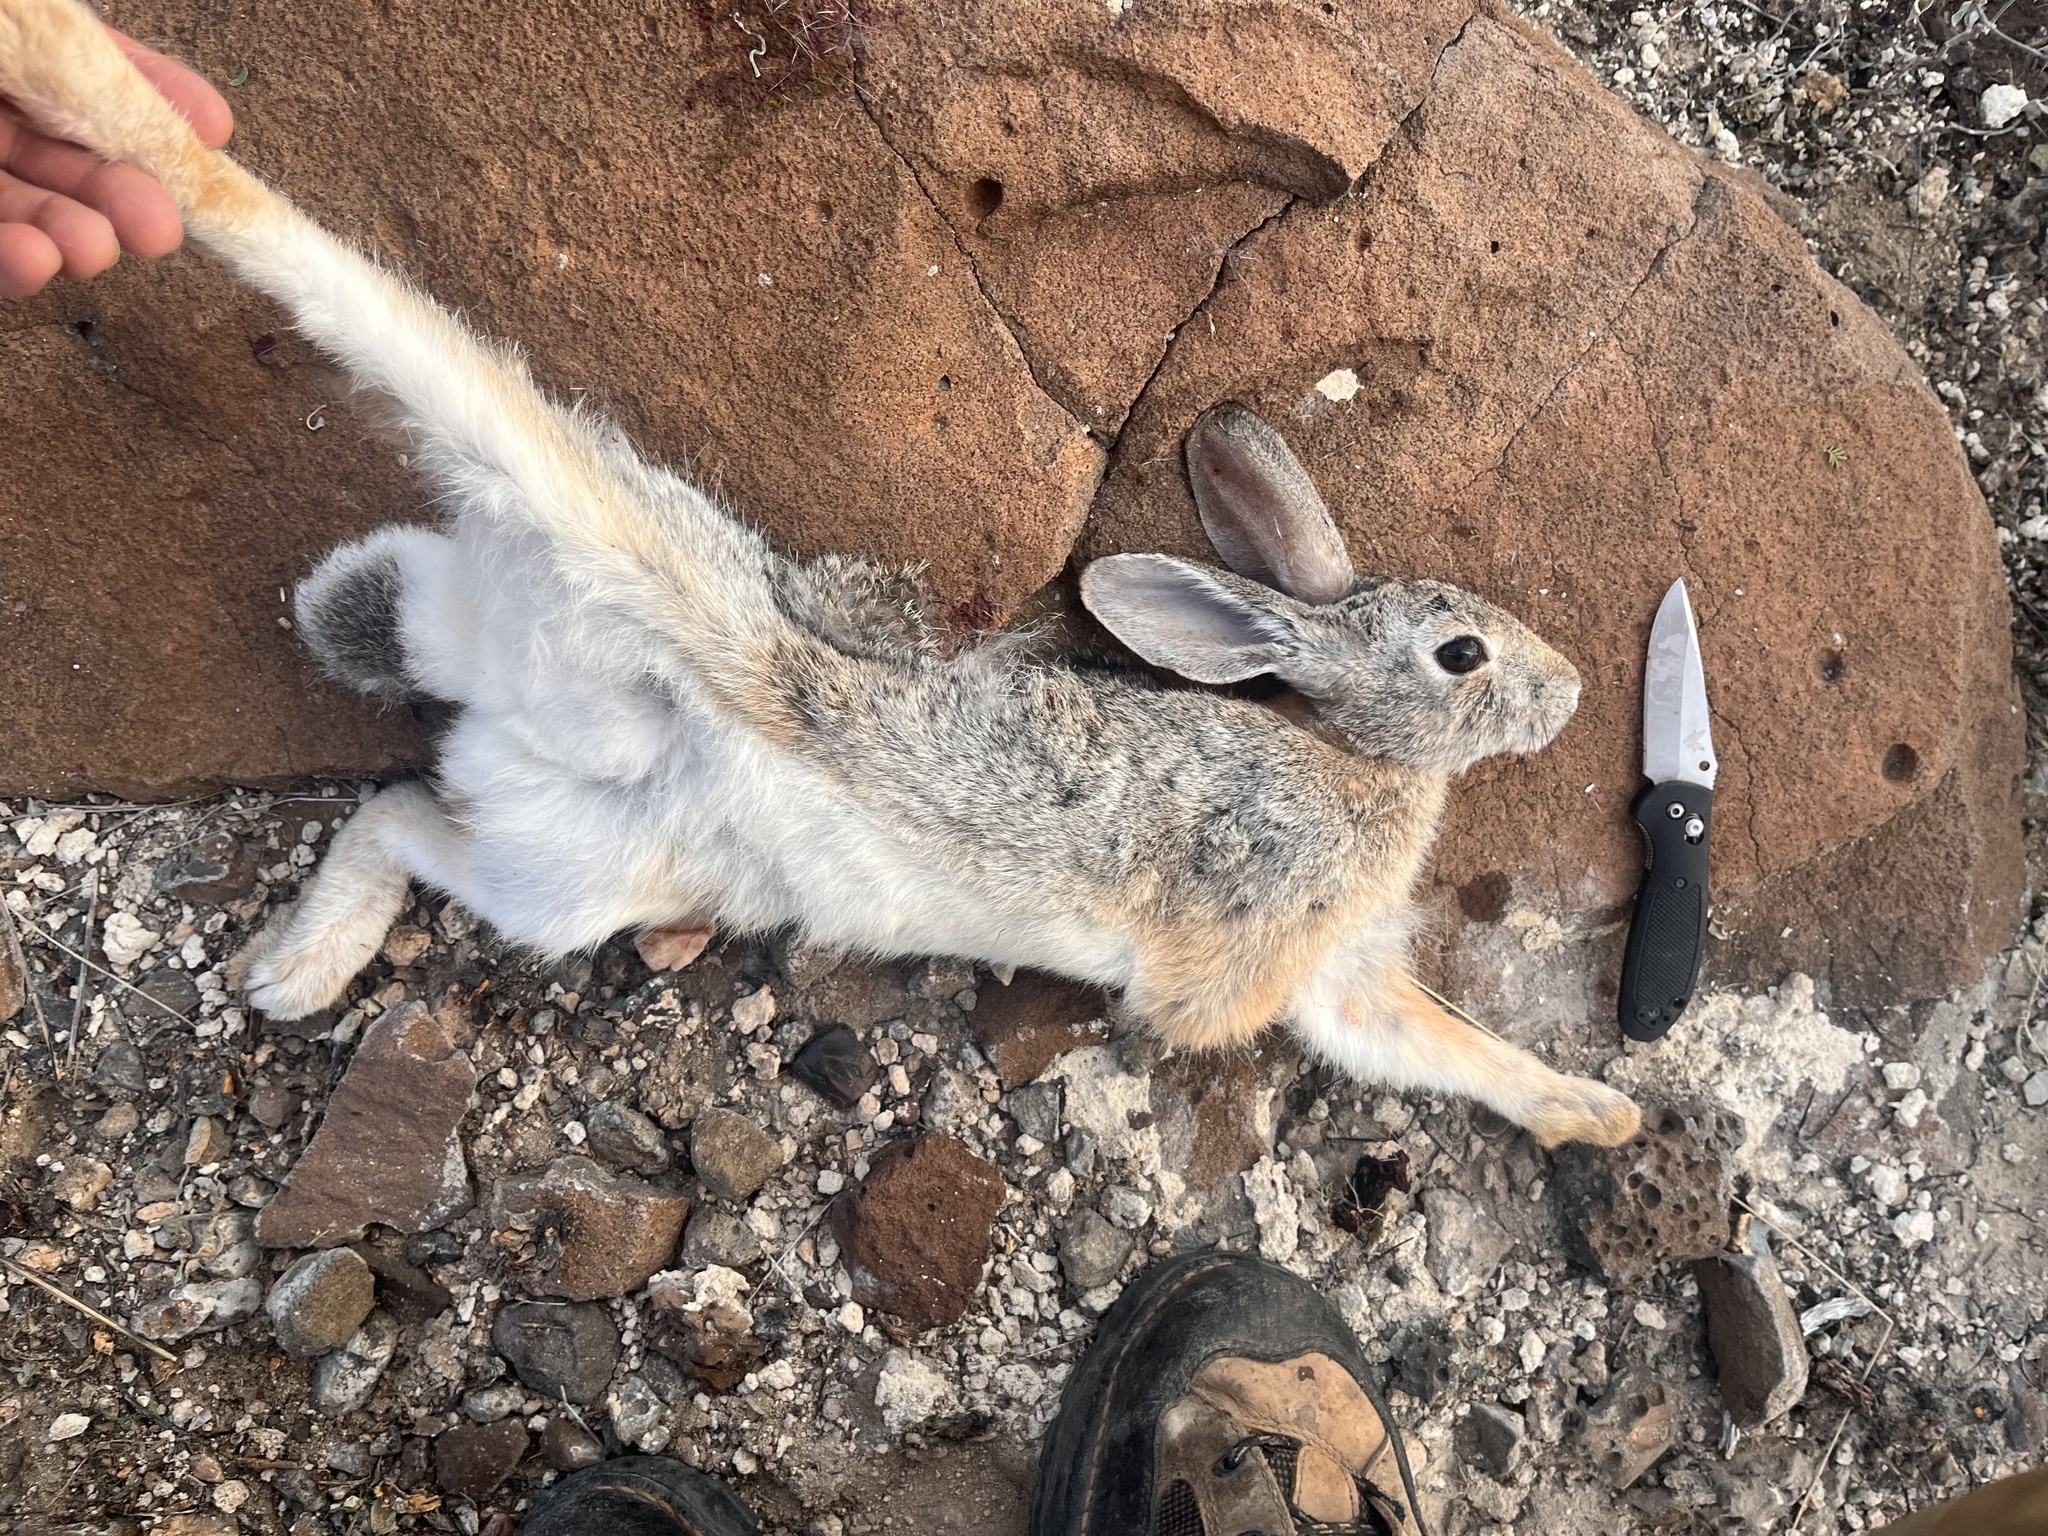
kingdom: Animalia
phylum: Chordata
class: Mammalia
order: Lagomorpha
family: Leporidae
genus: Sylvilagus
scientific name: Sylvilagus audubonii
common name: Desert cottontail
